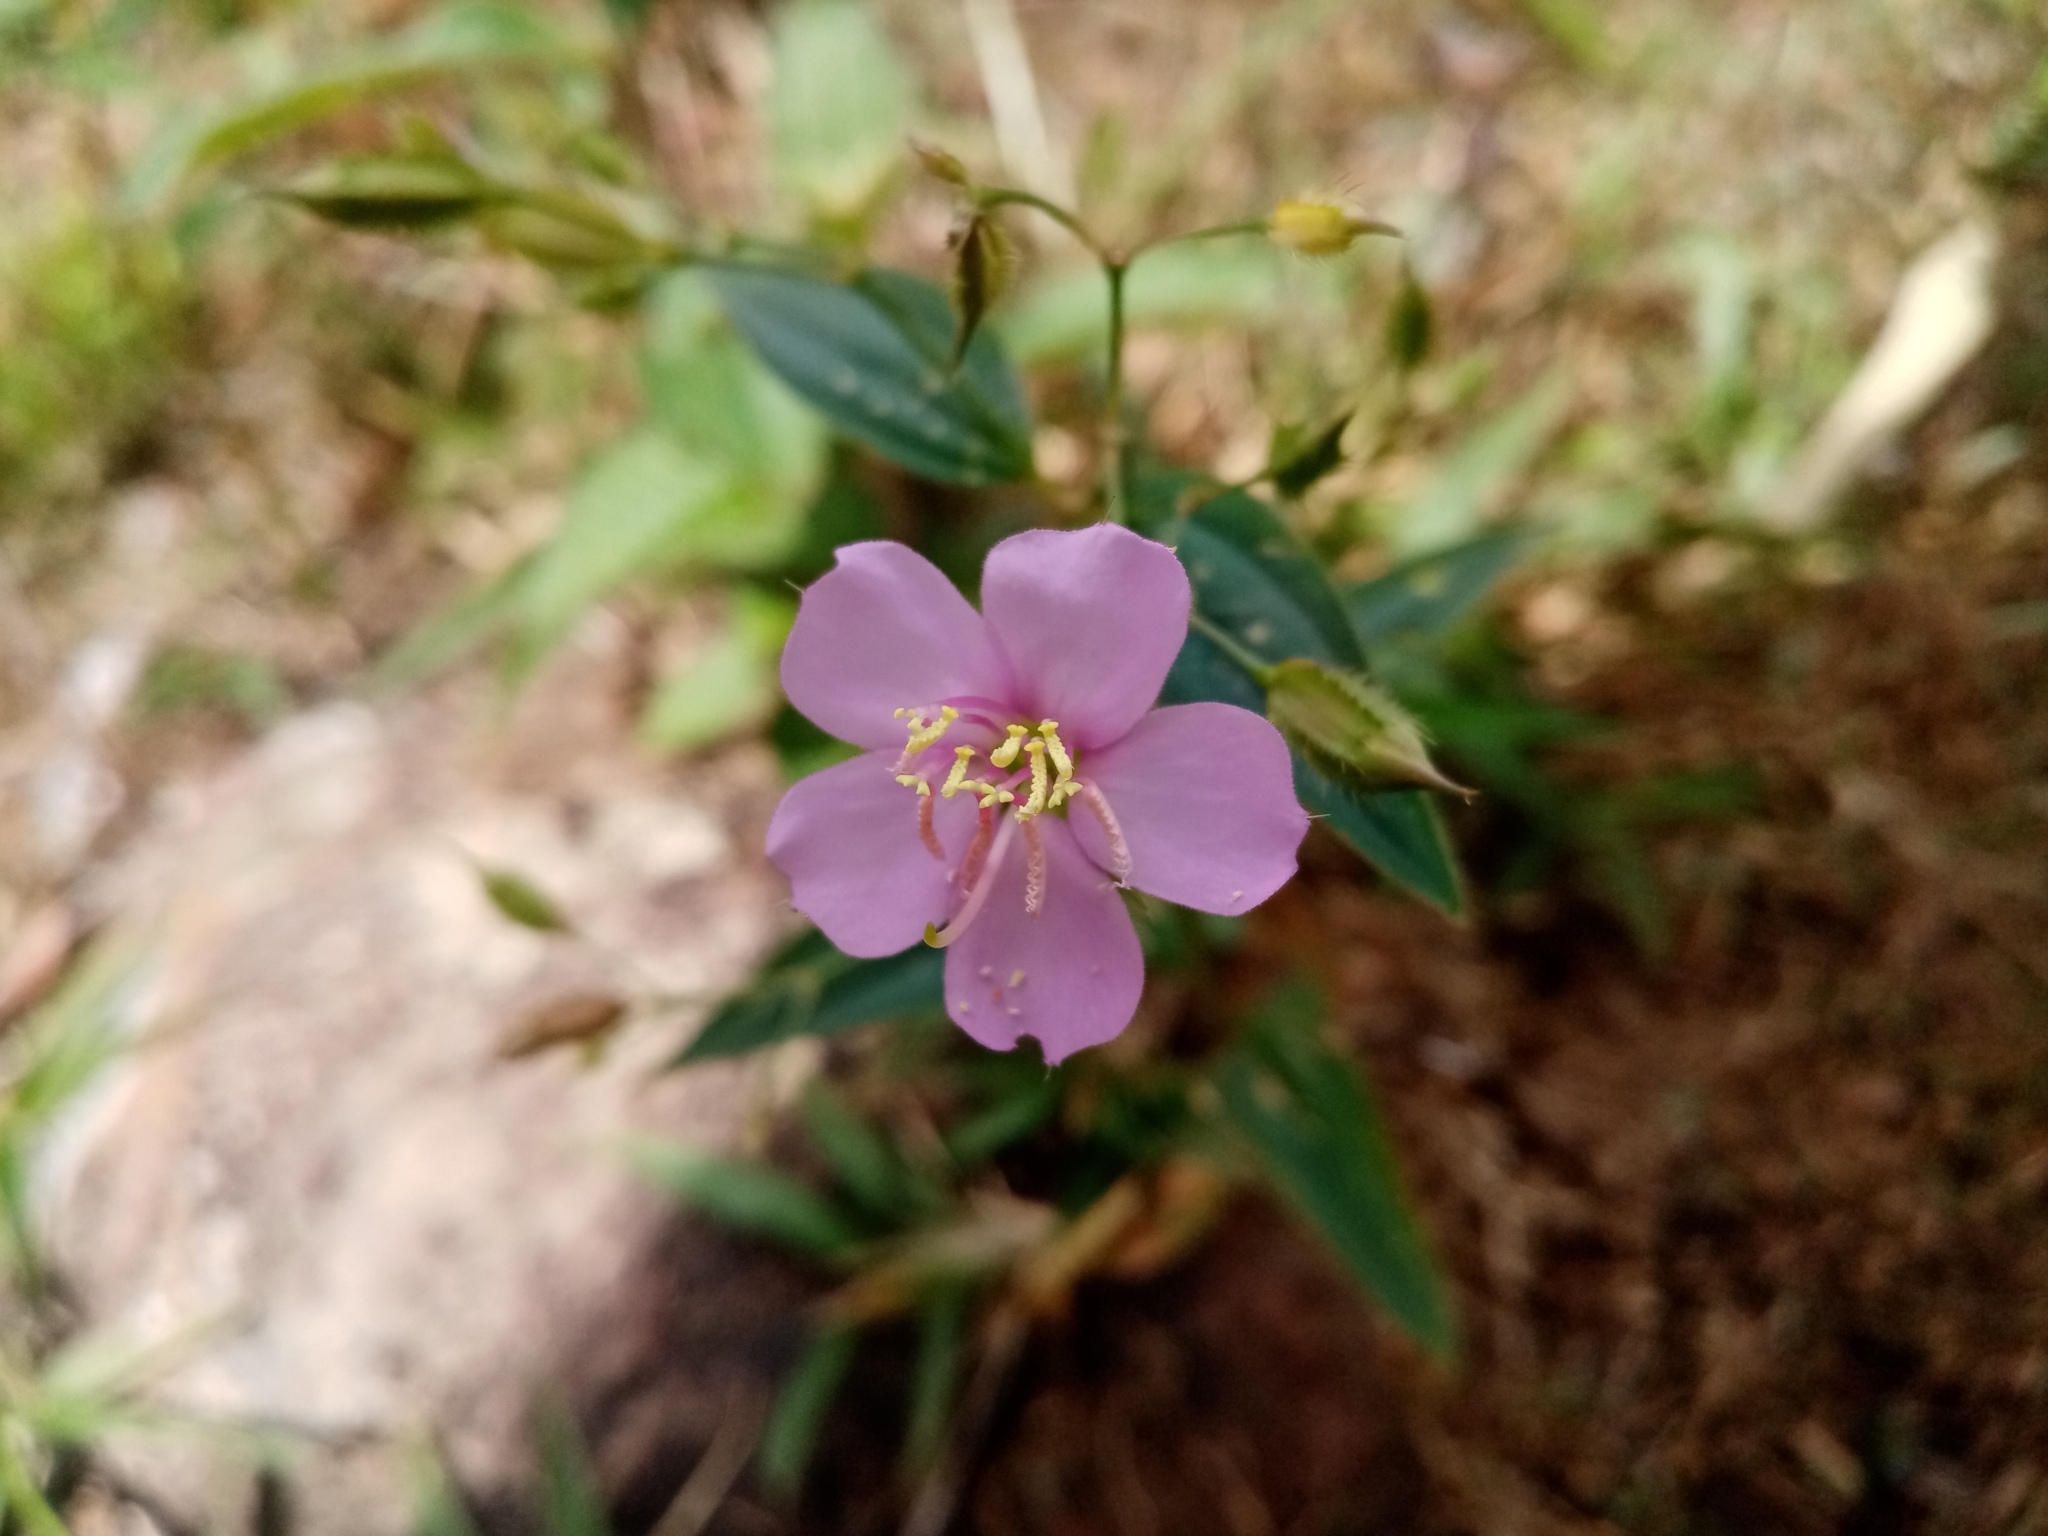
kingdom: Plantae
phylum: Tracheophyta
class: Magnoliopsida
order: Myrtales
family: Melastomataceae
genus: Pterogastra
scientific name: Pterogastra divaricata
